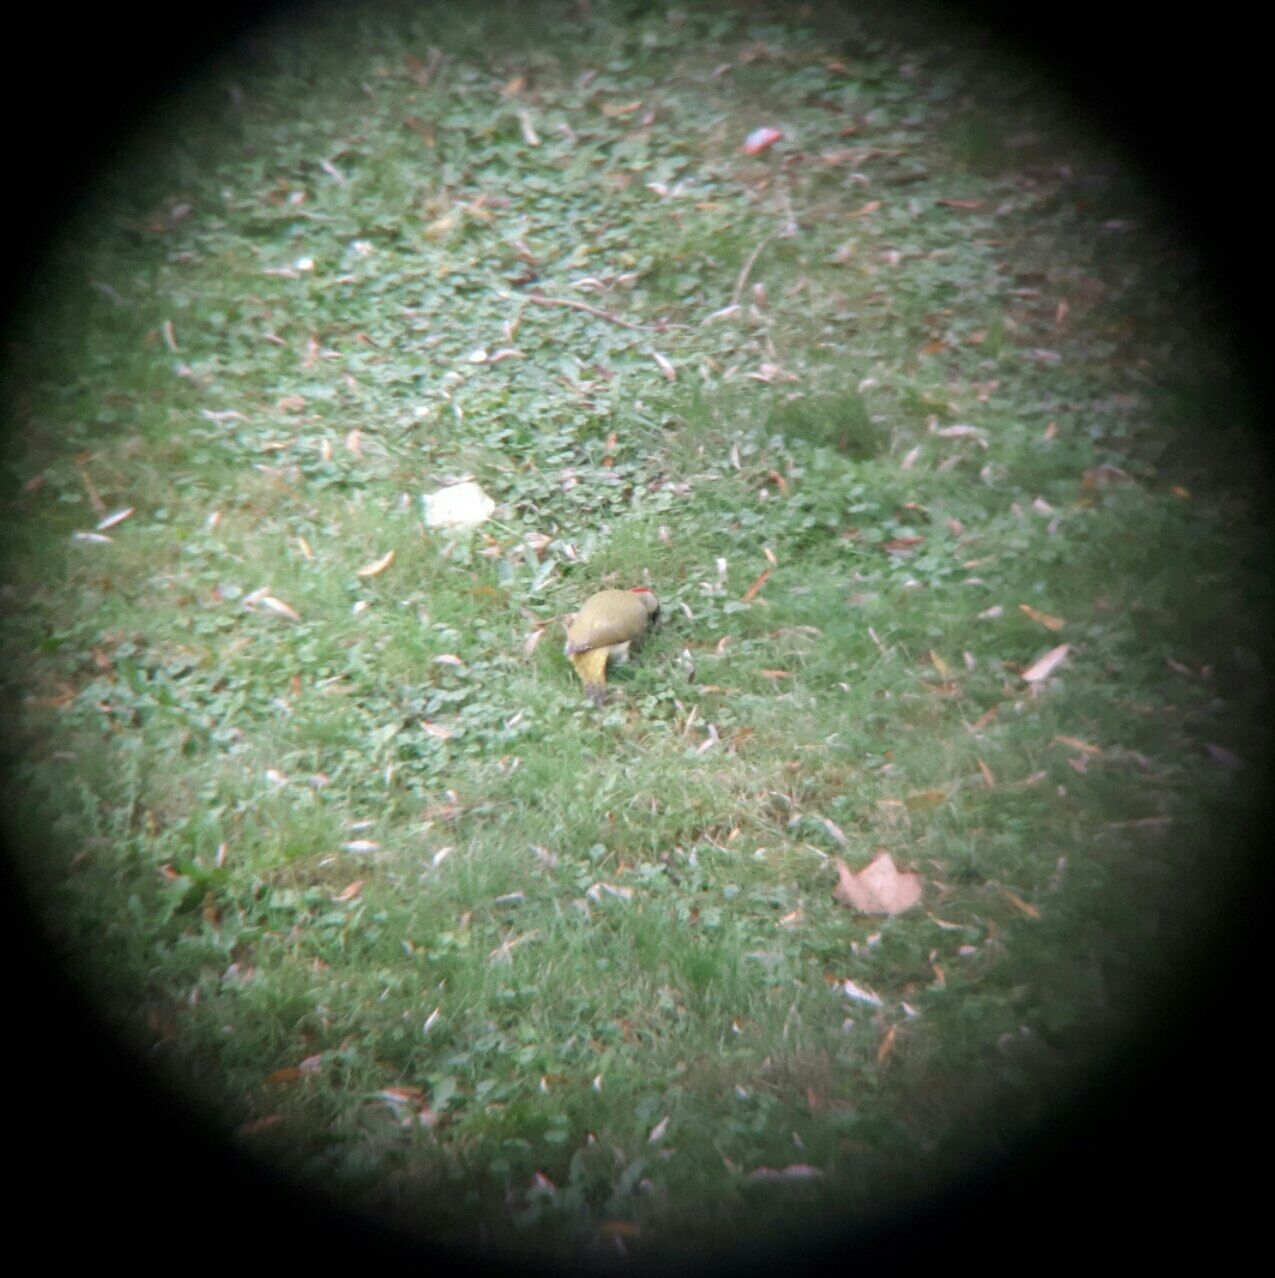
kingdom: Animalia
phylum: Chordata
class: Aves
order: Piciformes
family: Picidae
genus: Picus
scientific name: Picus viridis
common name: European green woodpecker
